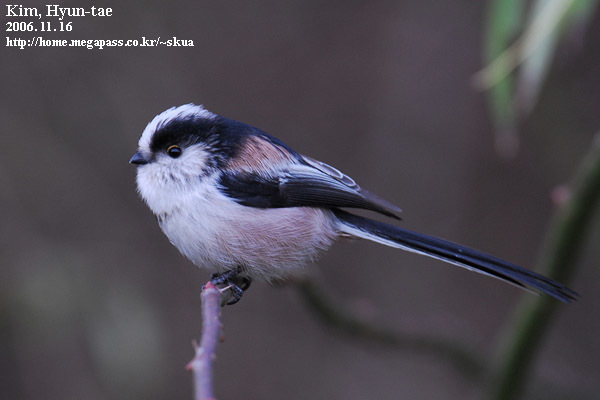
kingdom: Animalia
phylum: Chordata
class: Aves
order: Passeriformes
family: Aegithalidae
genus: Aegithalos
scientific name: Aegithalos caudatus
